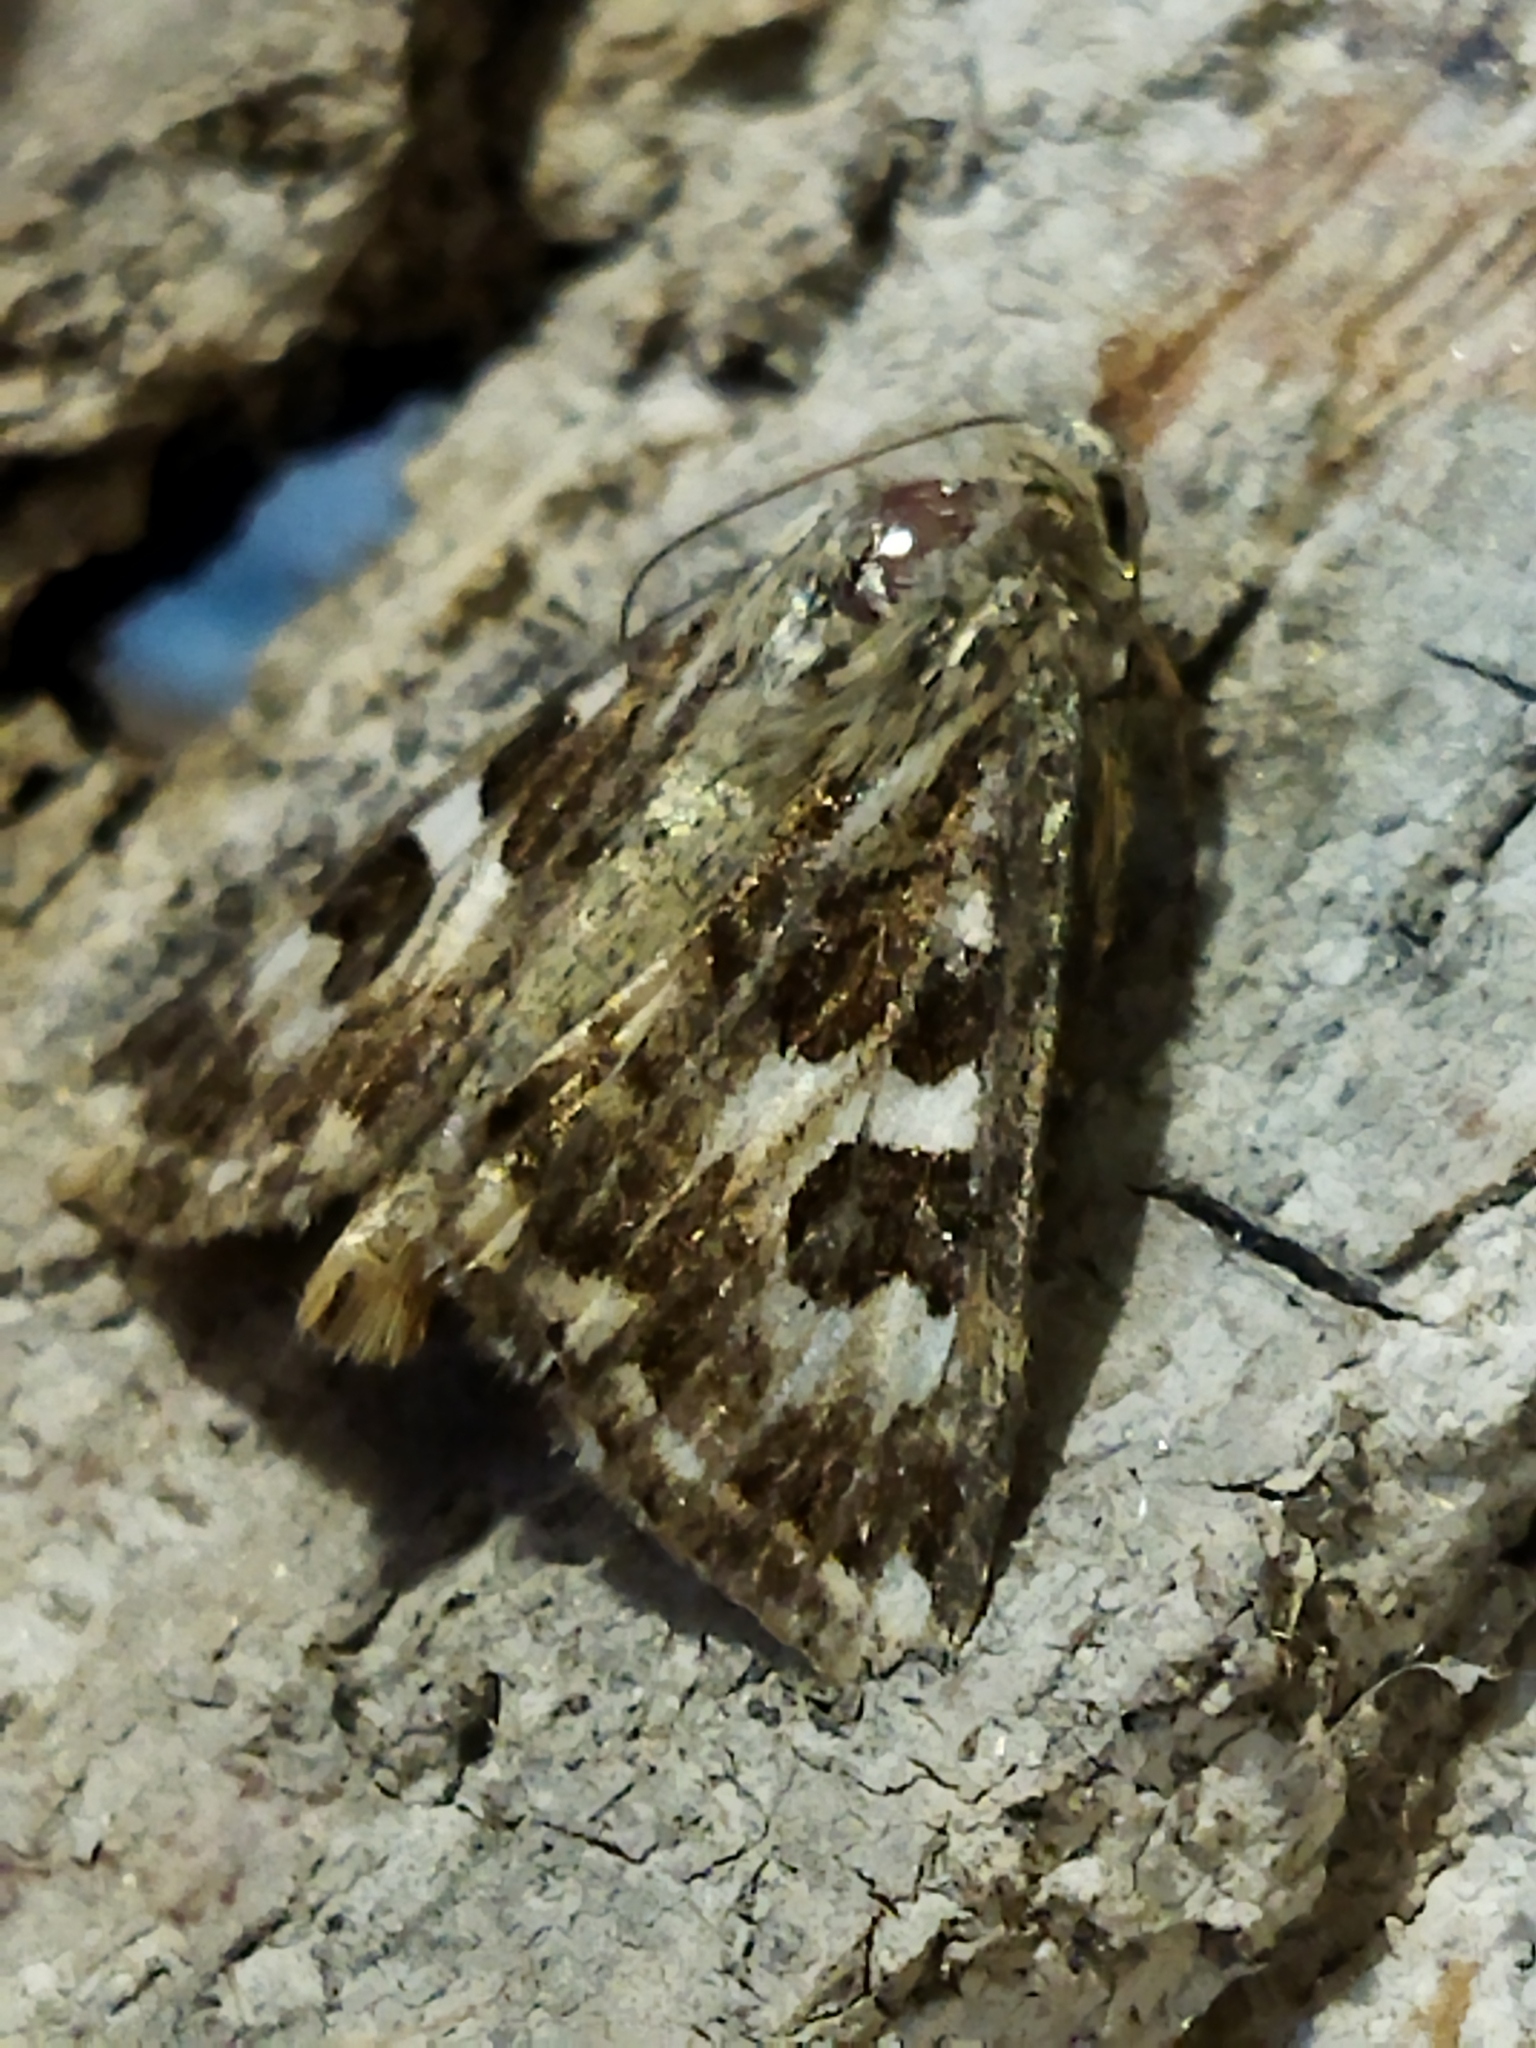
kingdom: Animalia
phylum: Arthropoda
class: Insecta
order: Lepidoptera
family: Noctuidae
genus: Protoschinia
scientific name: Protoschinia scutosa
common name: Spotted clover
